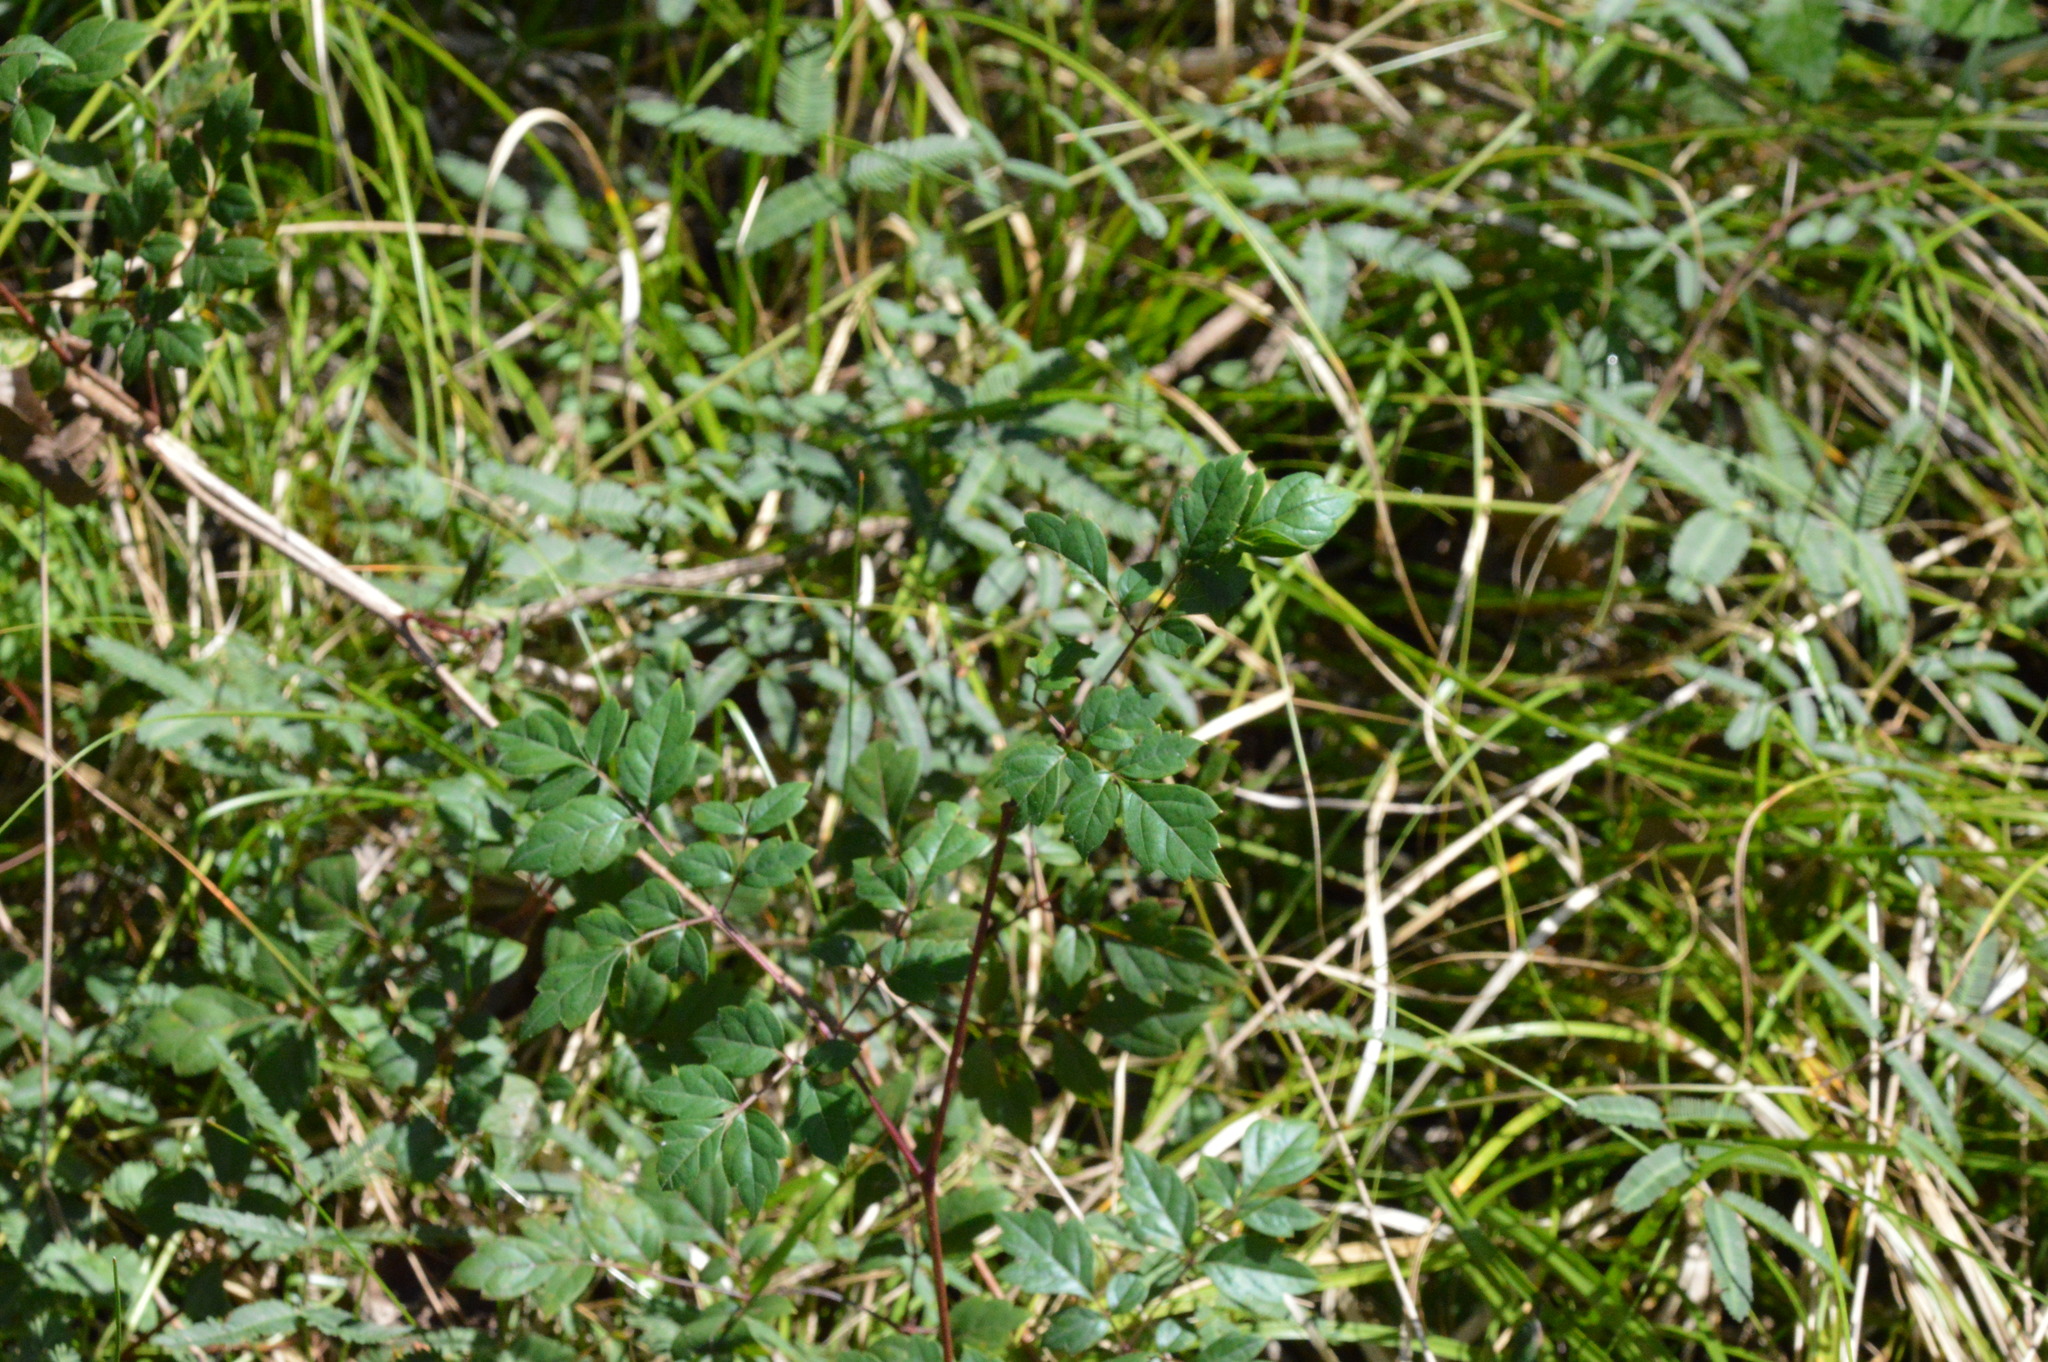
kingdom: Plantae
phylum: Tracheophyta
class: Magnoliopsida
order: Vitales
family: Vitaceae
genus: Nekemias
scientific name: Nekemias arborea
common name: Peppervine
